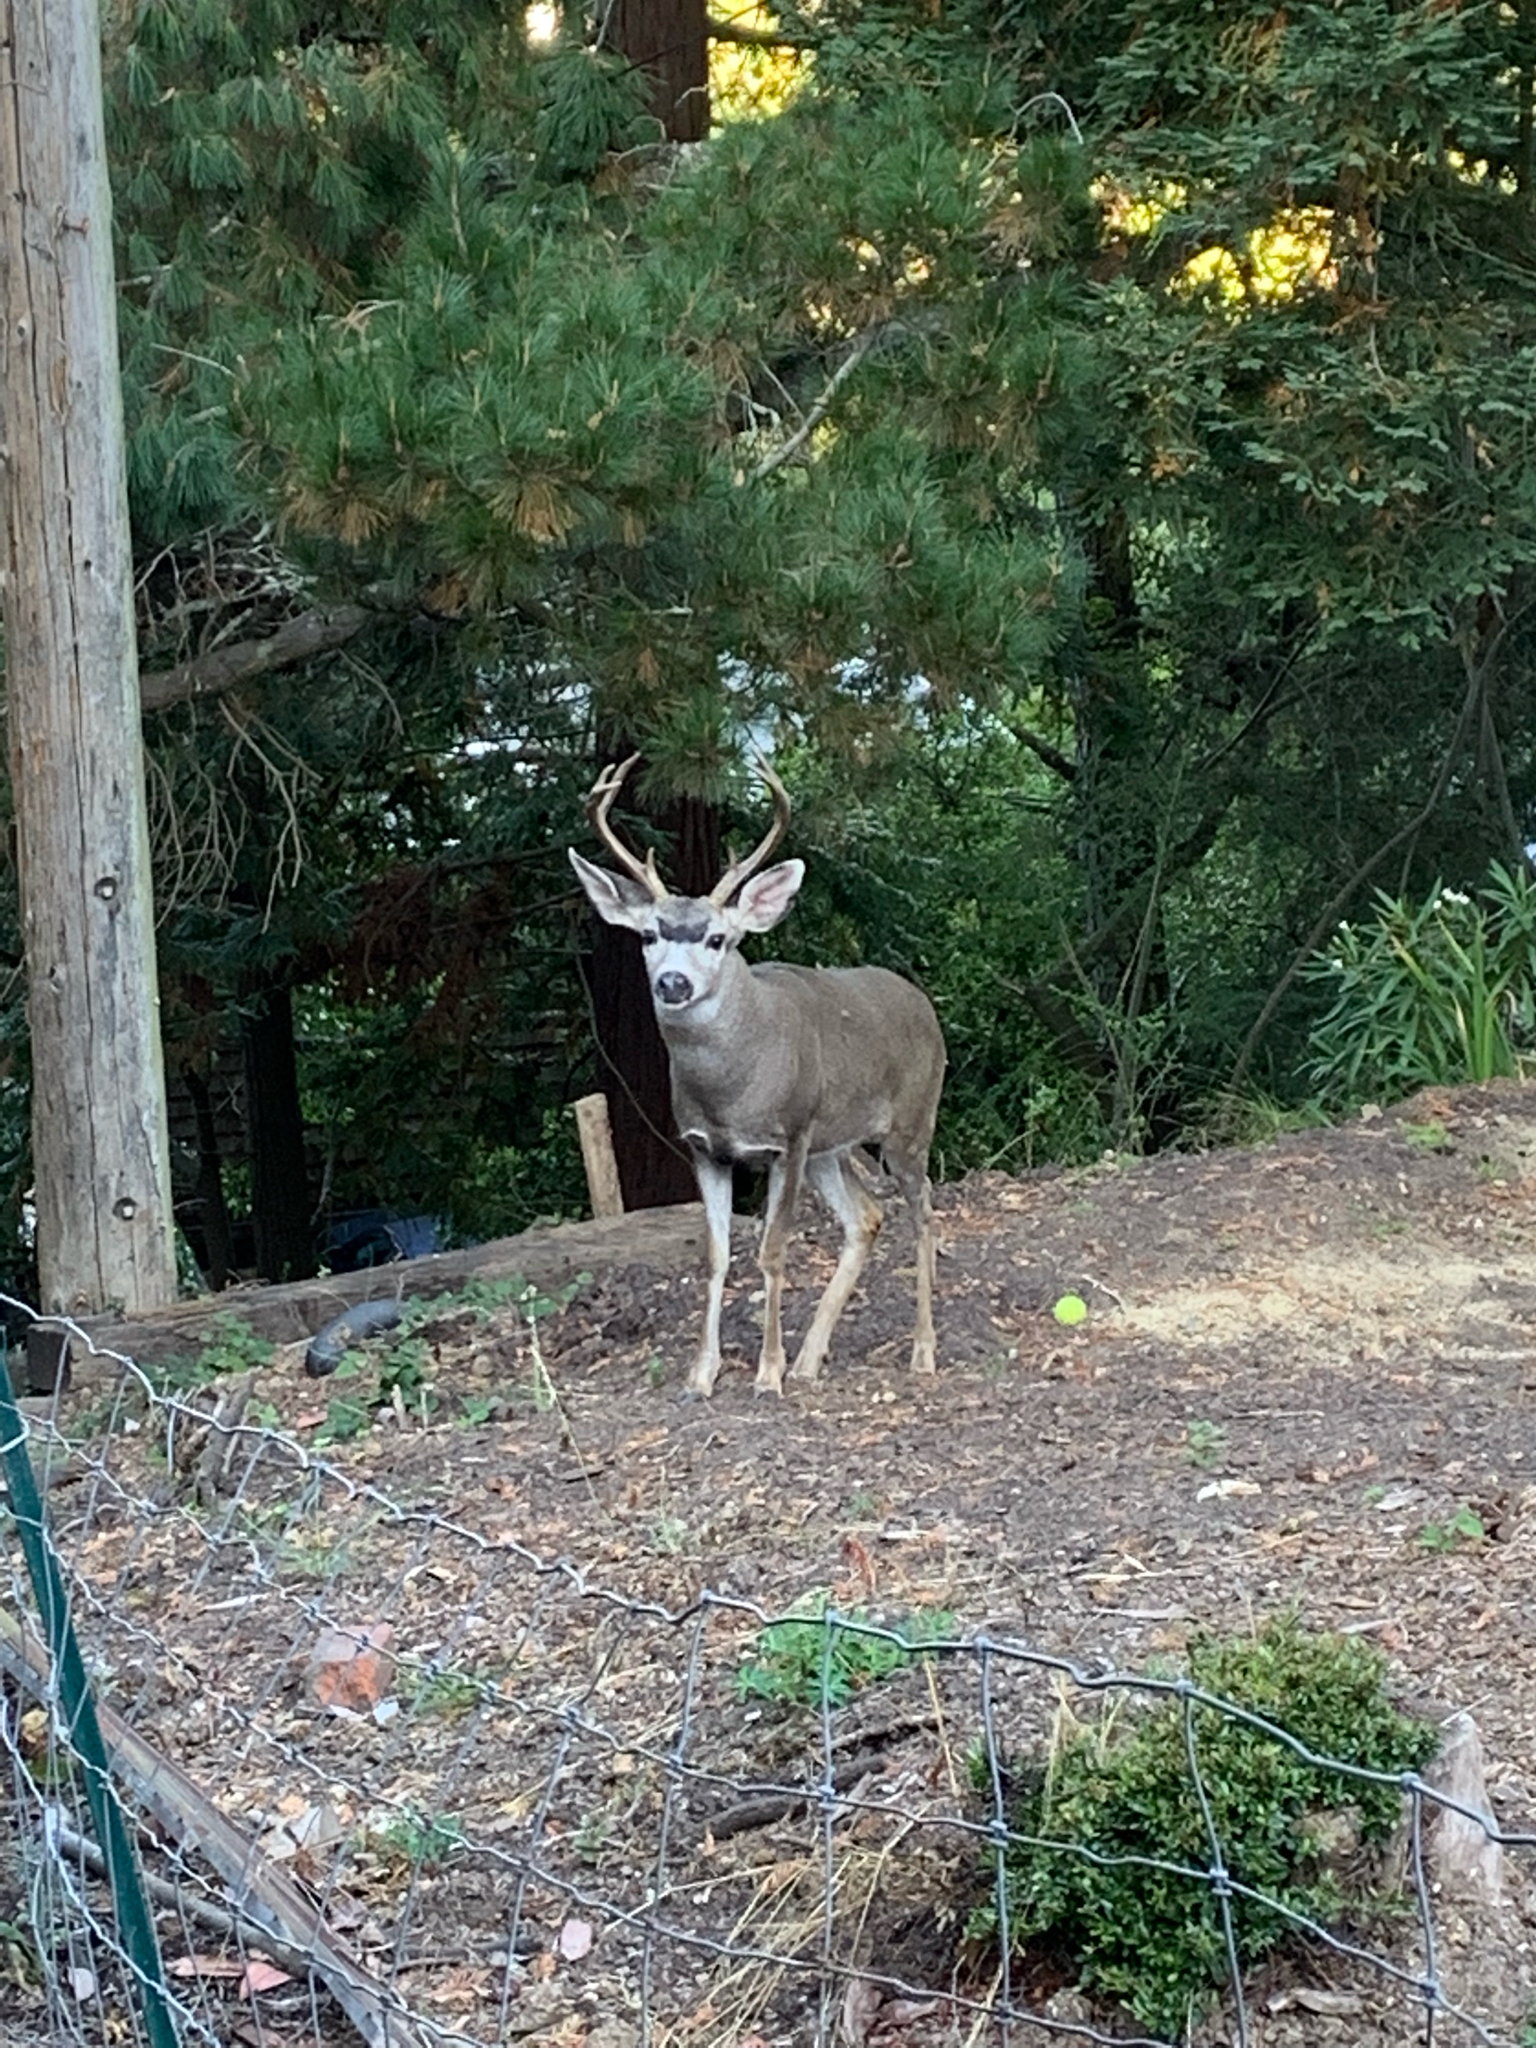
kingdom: Animalia
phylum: Chordata
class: Mammalia
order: Artiodactyla
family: Cervidae
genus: Odocoileus
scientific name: Odocoileus hemionus
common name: Mule deer
